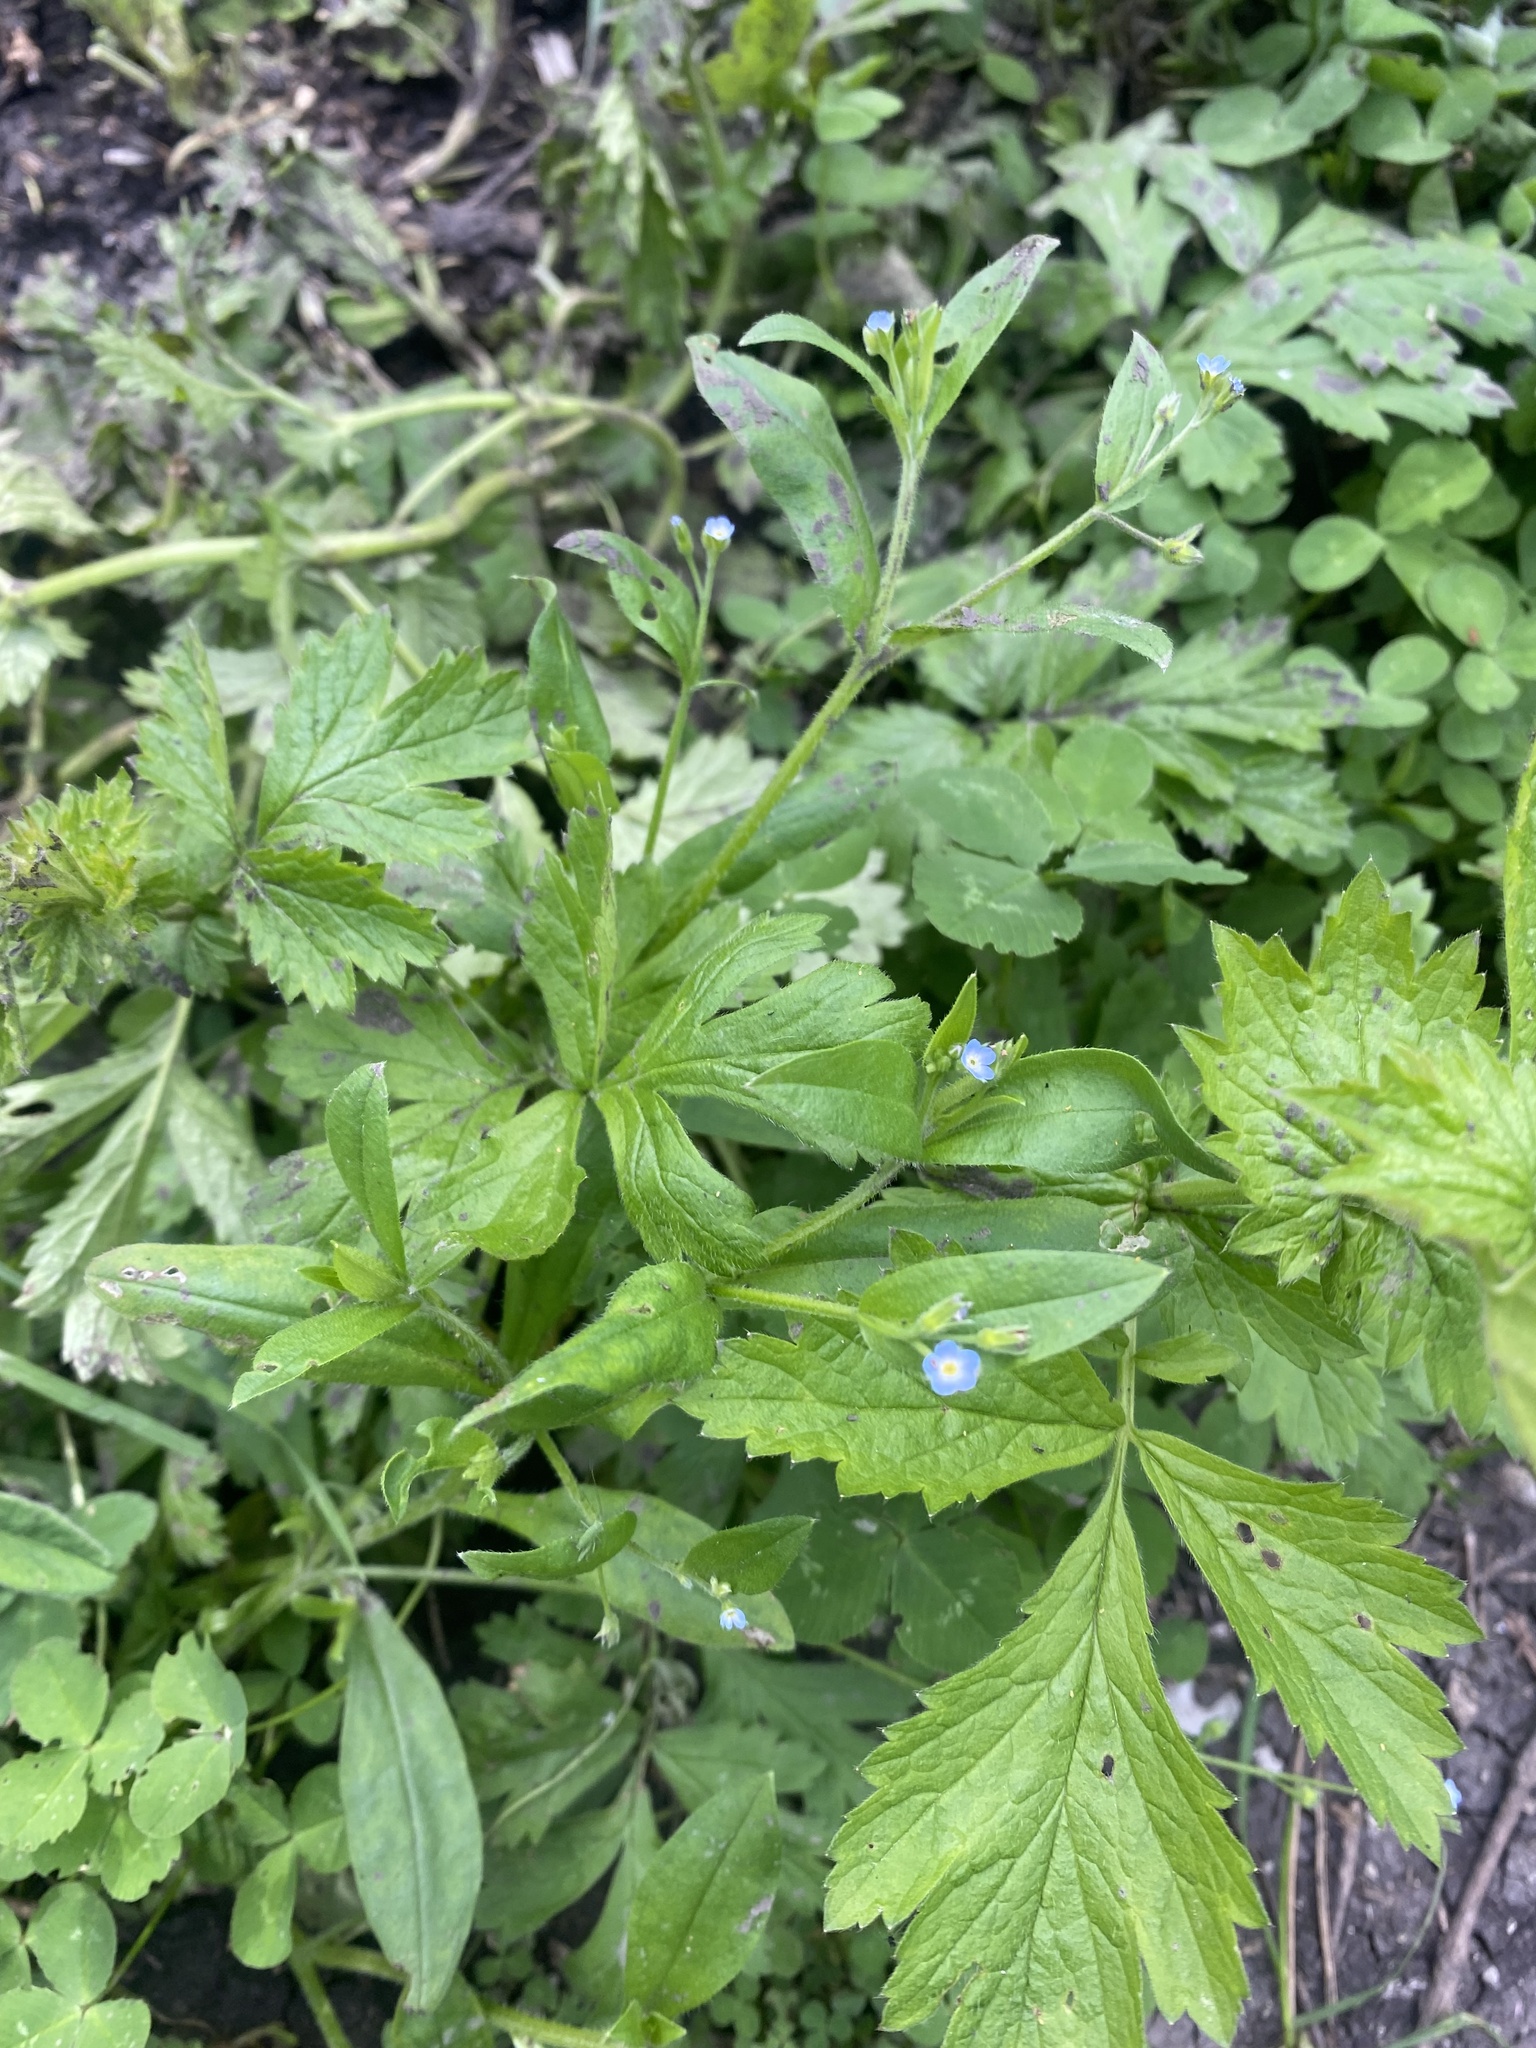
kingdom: Plantae
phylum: Tracheophyta
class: Magnoliopsida
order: Boraginales
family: Boraginaceae
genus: Myosotis
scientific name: Myosotis sparsiflora
